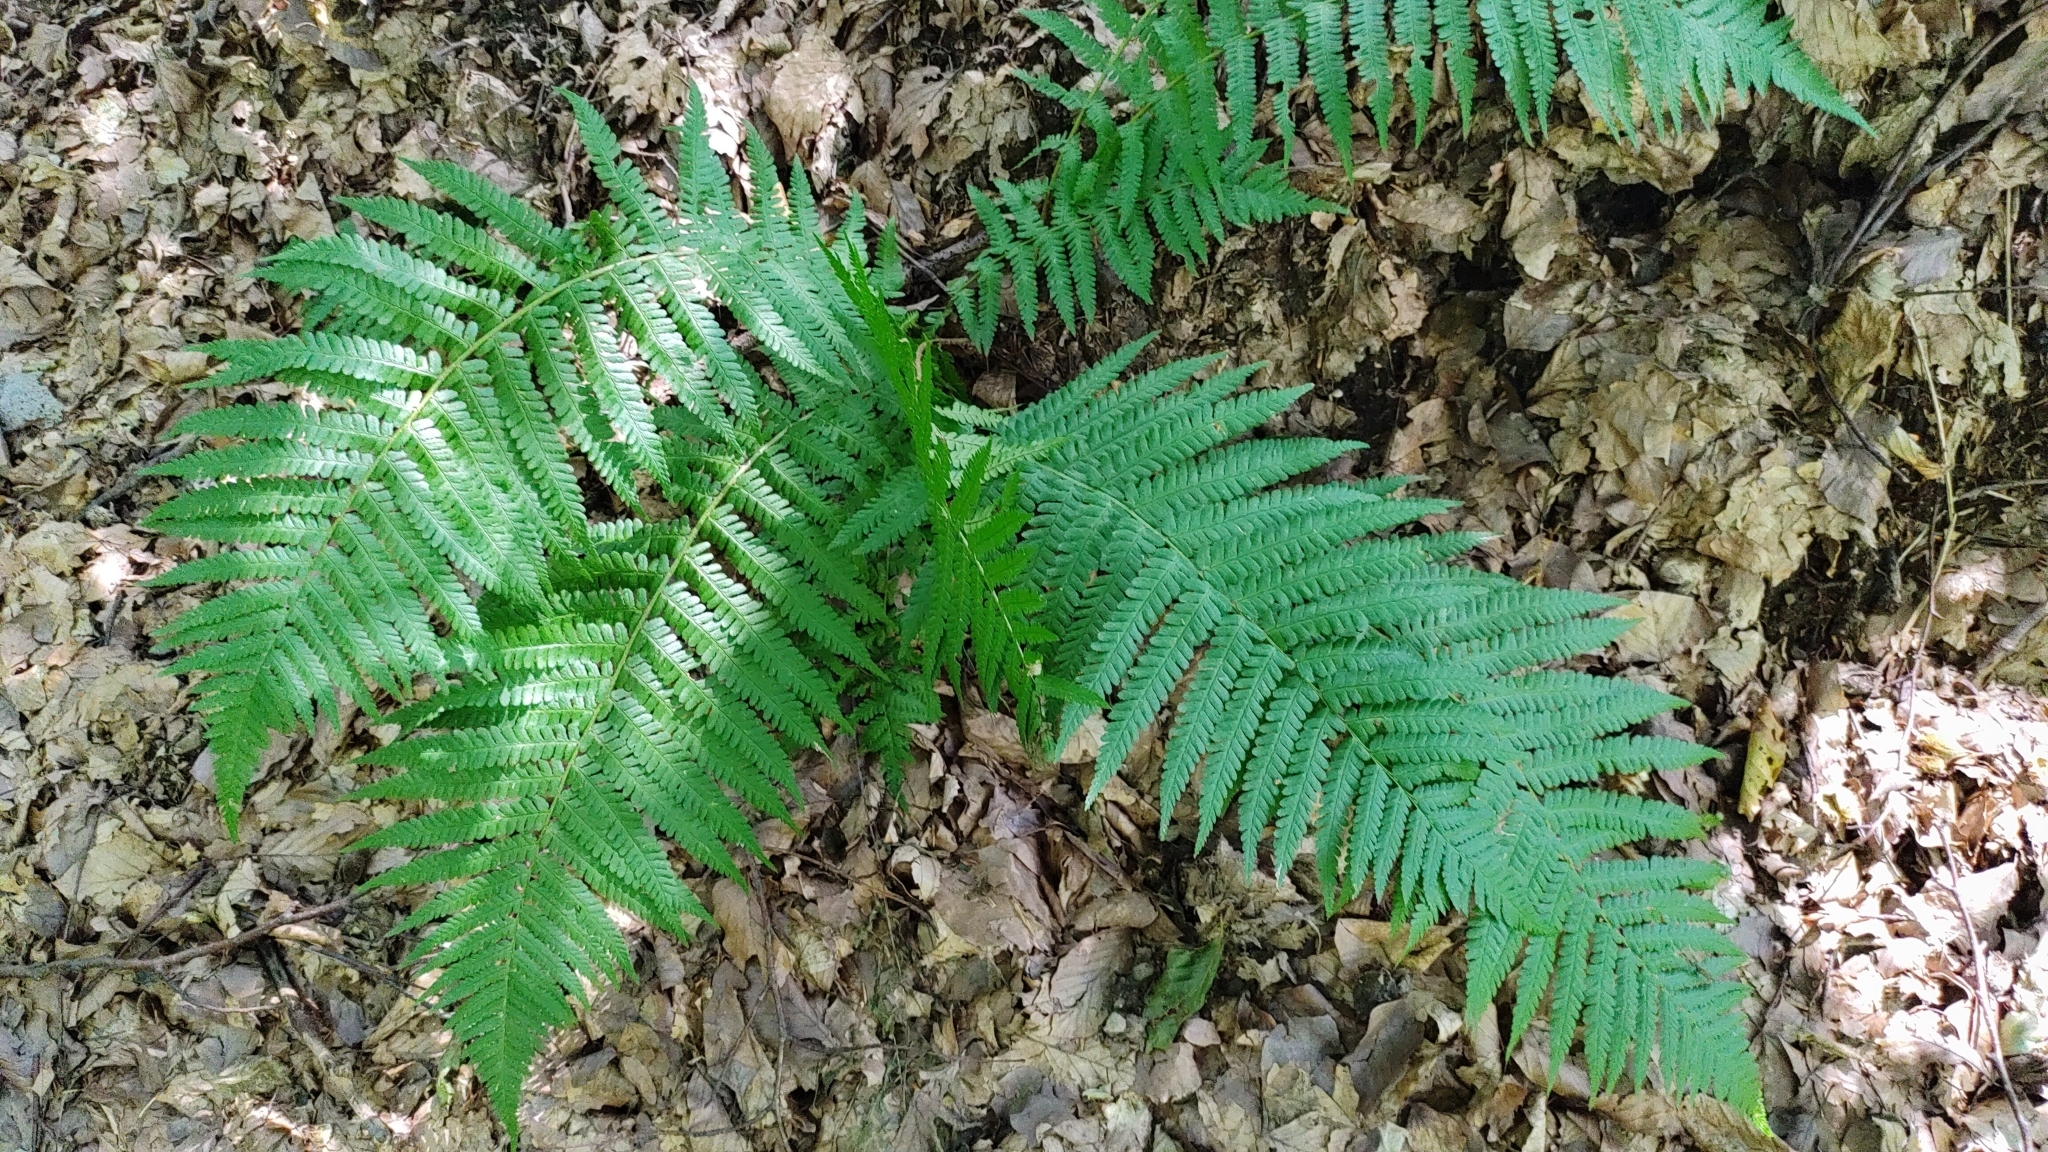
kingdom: Plantae
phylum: Tracheophyta
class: Polypodiopsida
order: Polypodiales
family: Dryopteridaceae
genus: Dryopteris
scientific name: Dryopteris filix-mas
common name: Male fern
